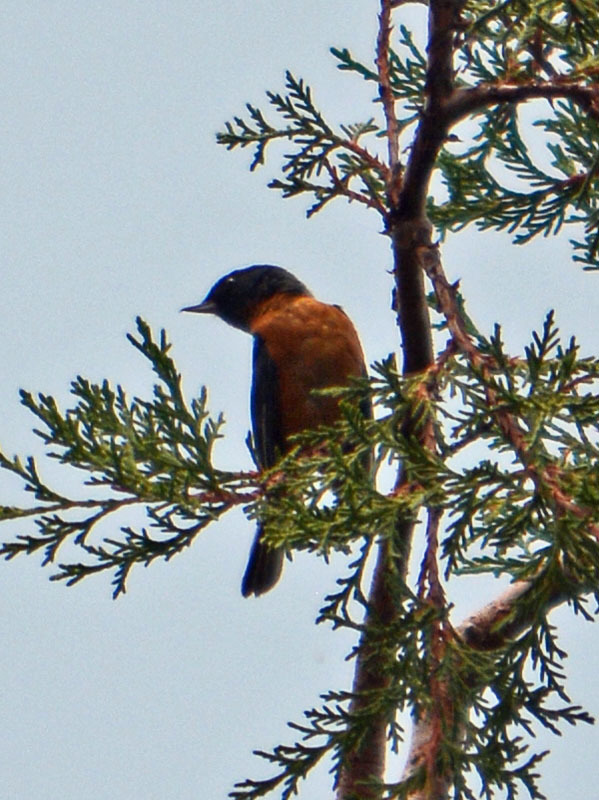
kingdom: Animalia
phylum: Chordata
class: Aves
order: Passeriformes
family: Thraupidae
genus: Diglossa
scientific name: Diglossa baritula
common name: Cinnamon-bellied flowerpiercer
